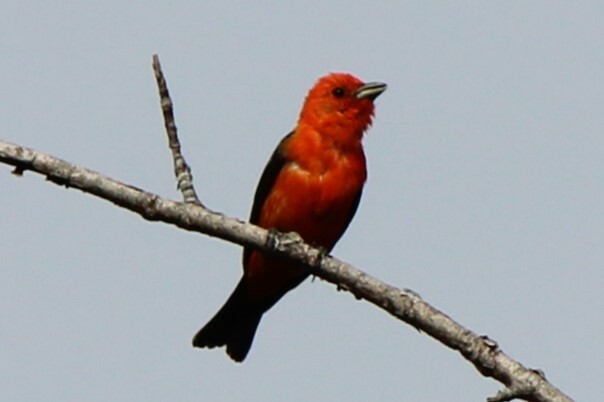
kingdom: Animalia
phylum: Chordata
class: Aves
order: Passeriformes
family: Cardinalidae
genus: Piranga
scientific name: Piranga olivacea
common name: Scarlet tanager
